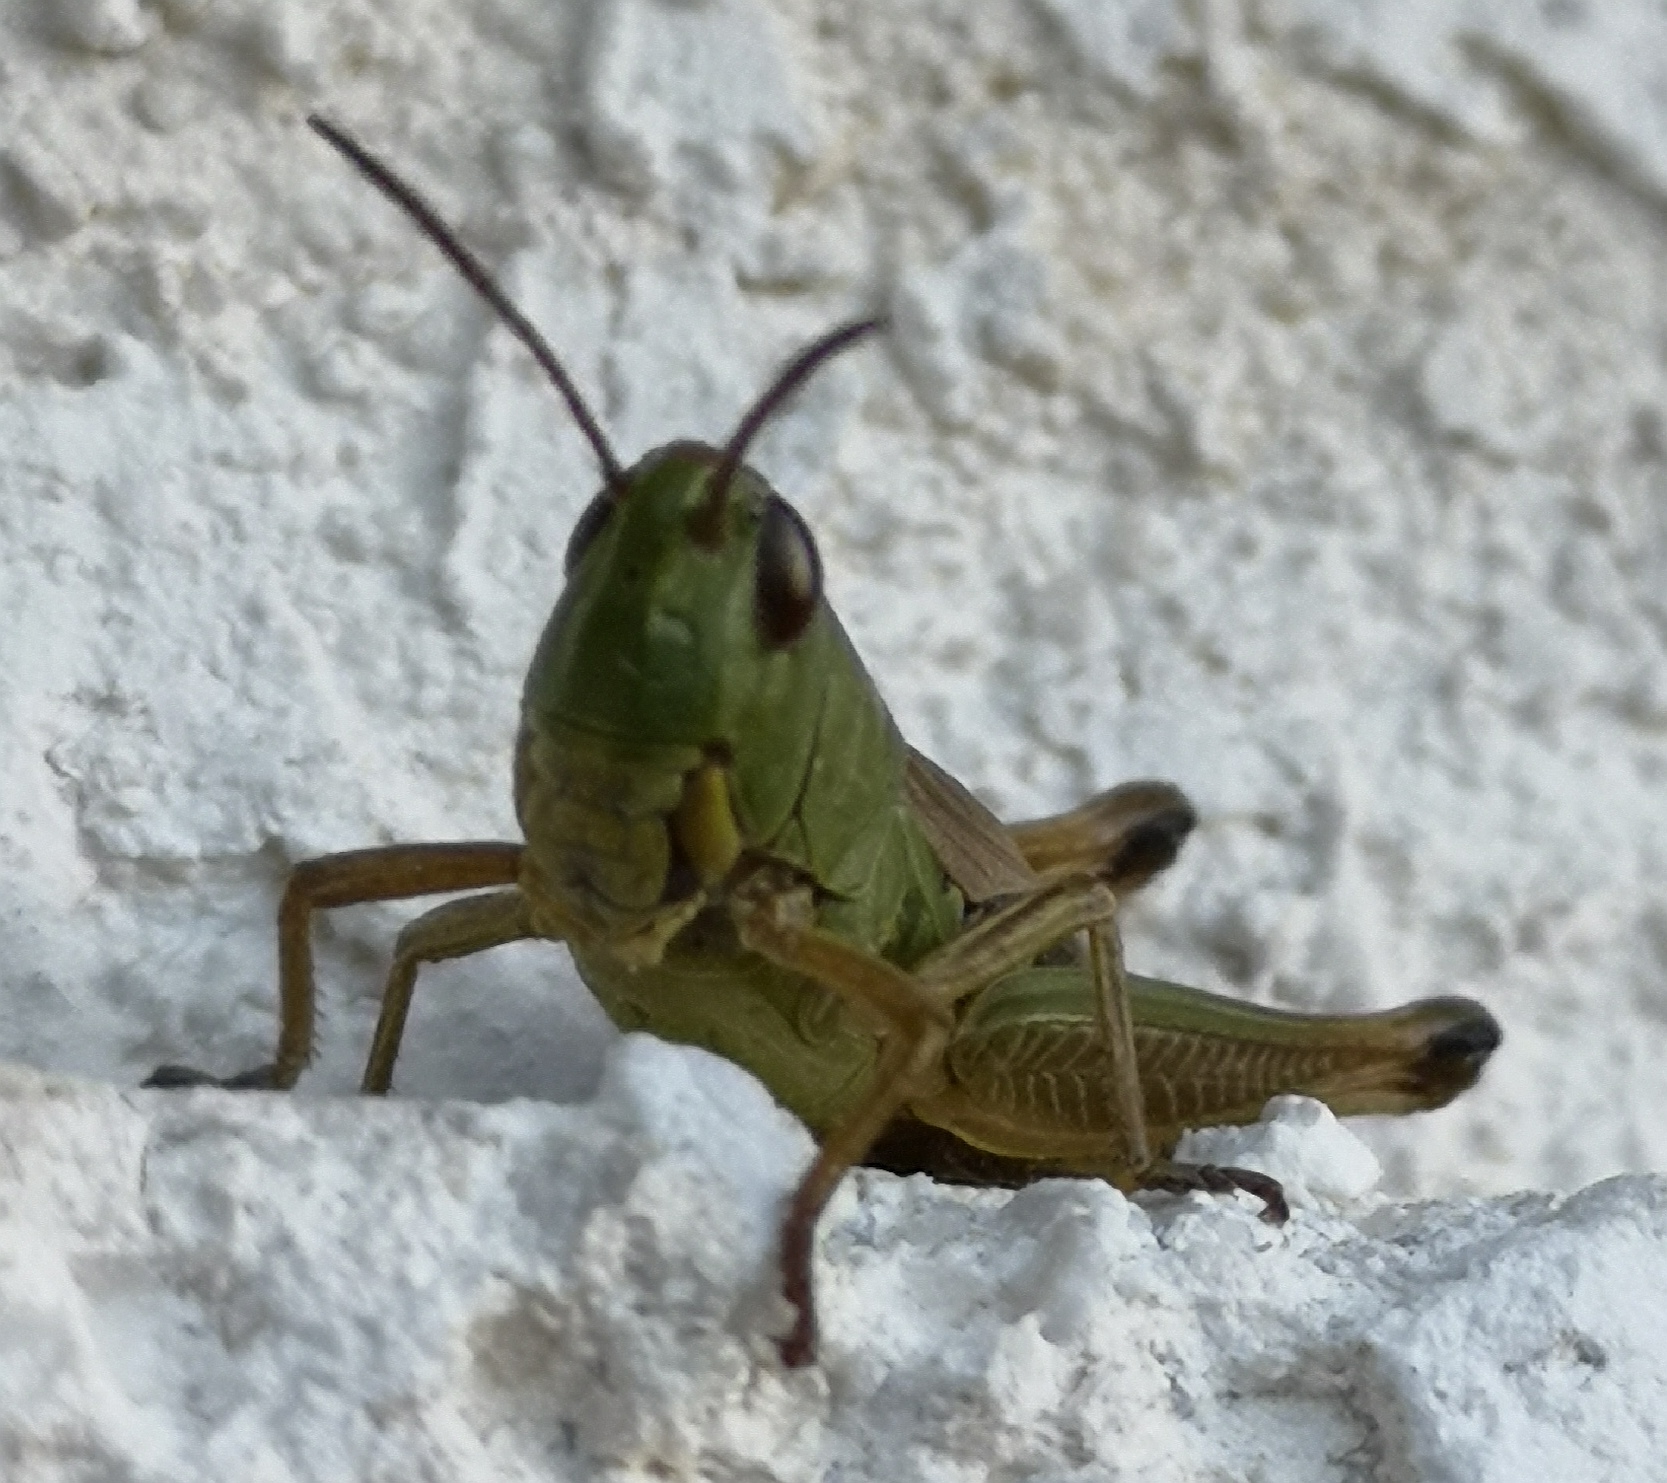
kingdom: Animalia
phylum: Arthropoda
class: Insecta
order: Orthoptera
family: Acrididae
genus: Pseudochorthippus
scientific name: Pseudochorthippus parallelus
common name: Meadow grasshopper
